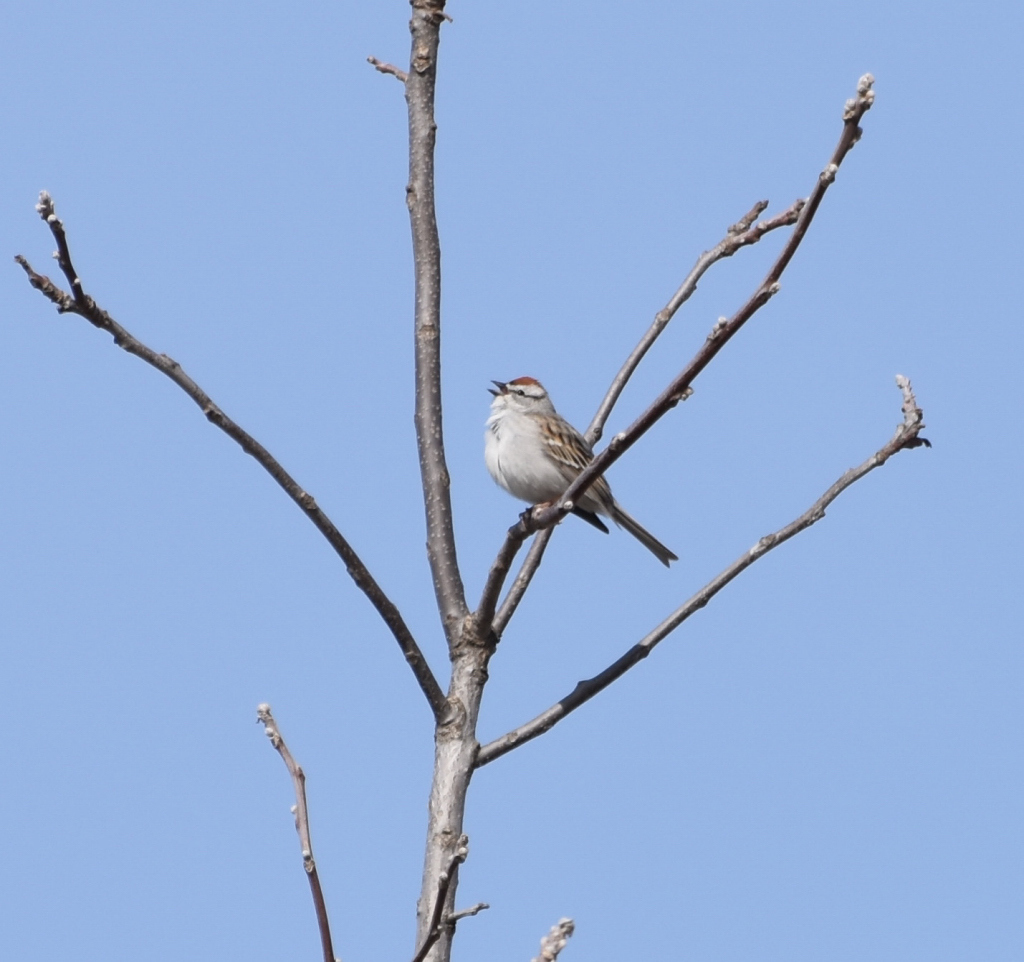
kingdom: Animalia
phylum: Chordata
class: Aves
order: Passeriformes
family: Passerellidae
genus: Spizella
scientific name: Spizella passerina
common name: Chipping sparrow
